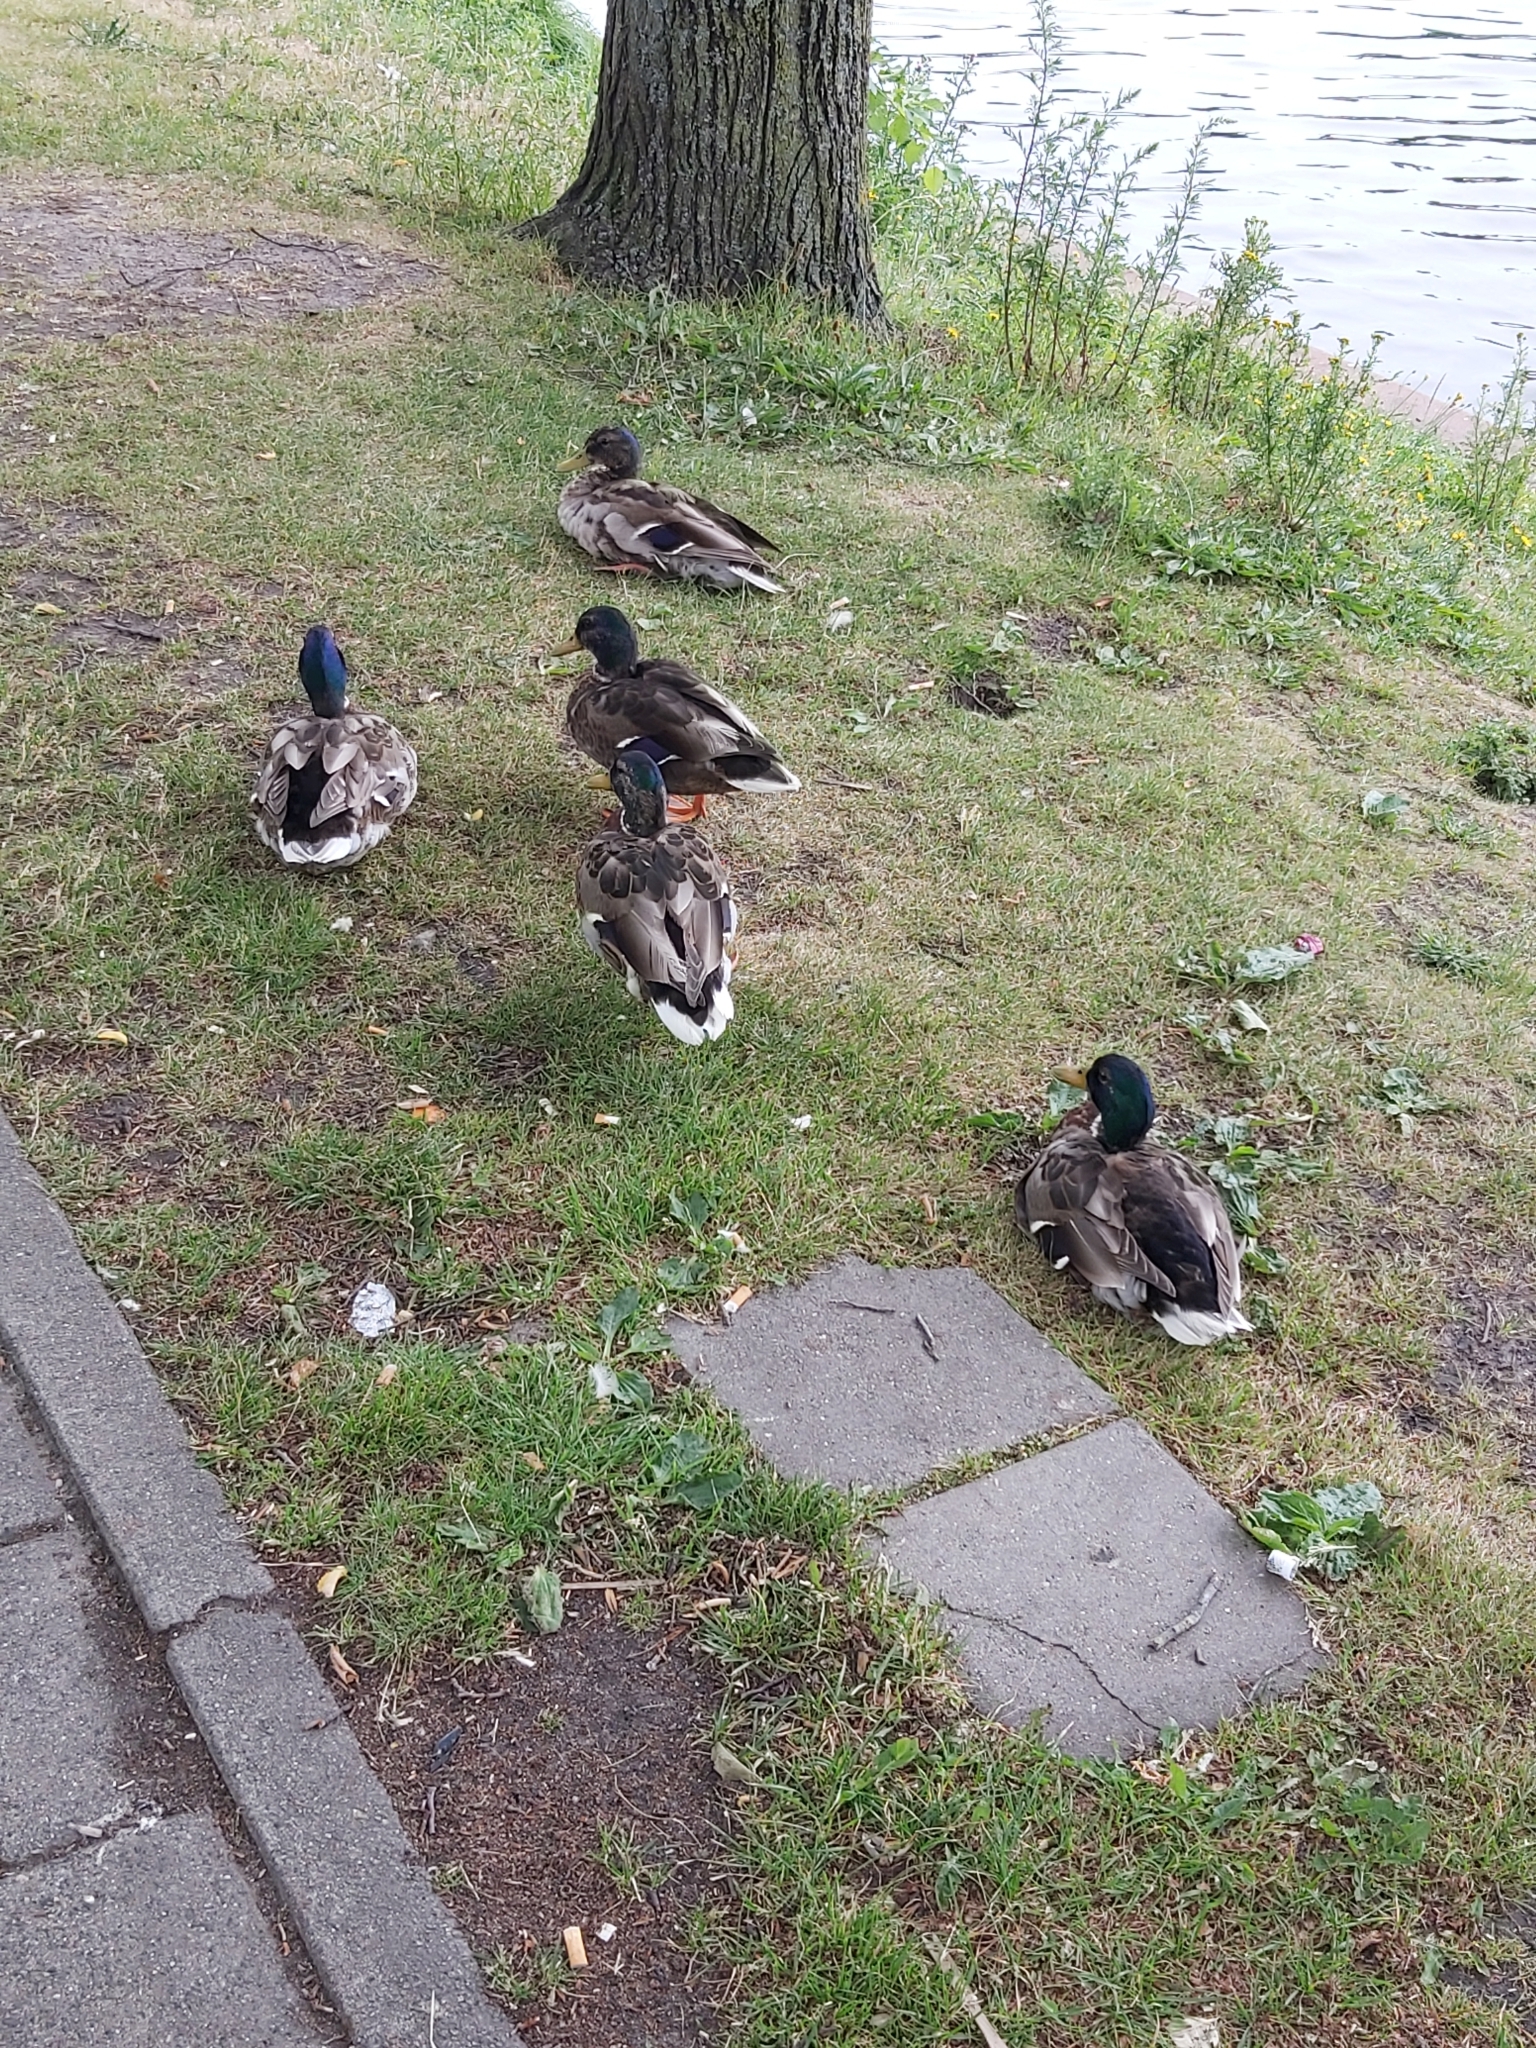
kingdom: Animalia
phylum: Chordata
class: Aves
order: Anseriformes
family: Anatidae
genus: Anas
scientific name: Anas platyrhynchos
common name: Mallard
